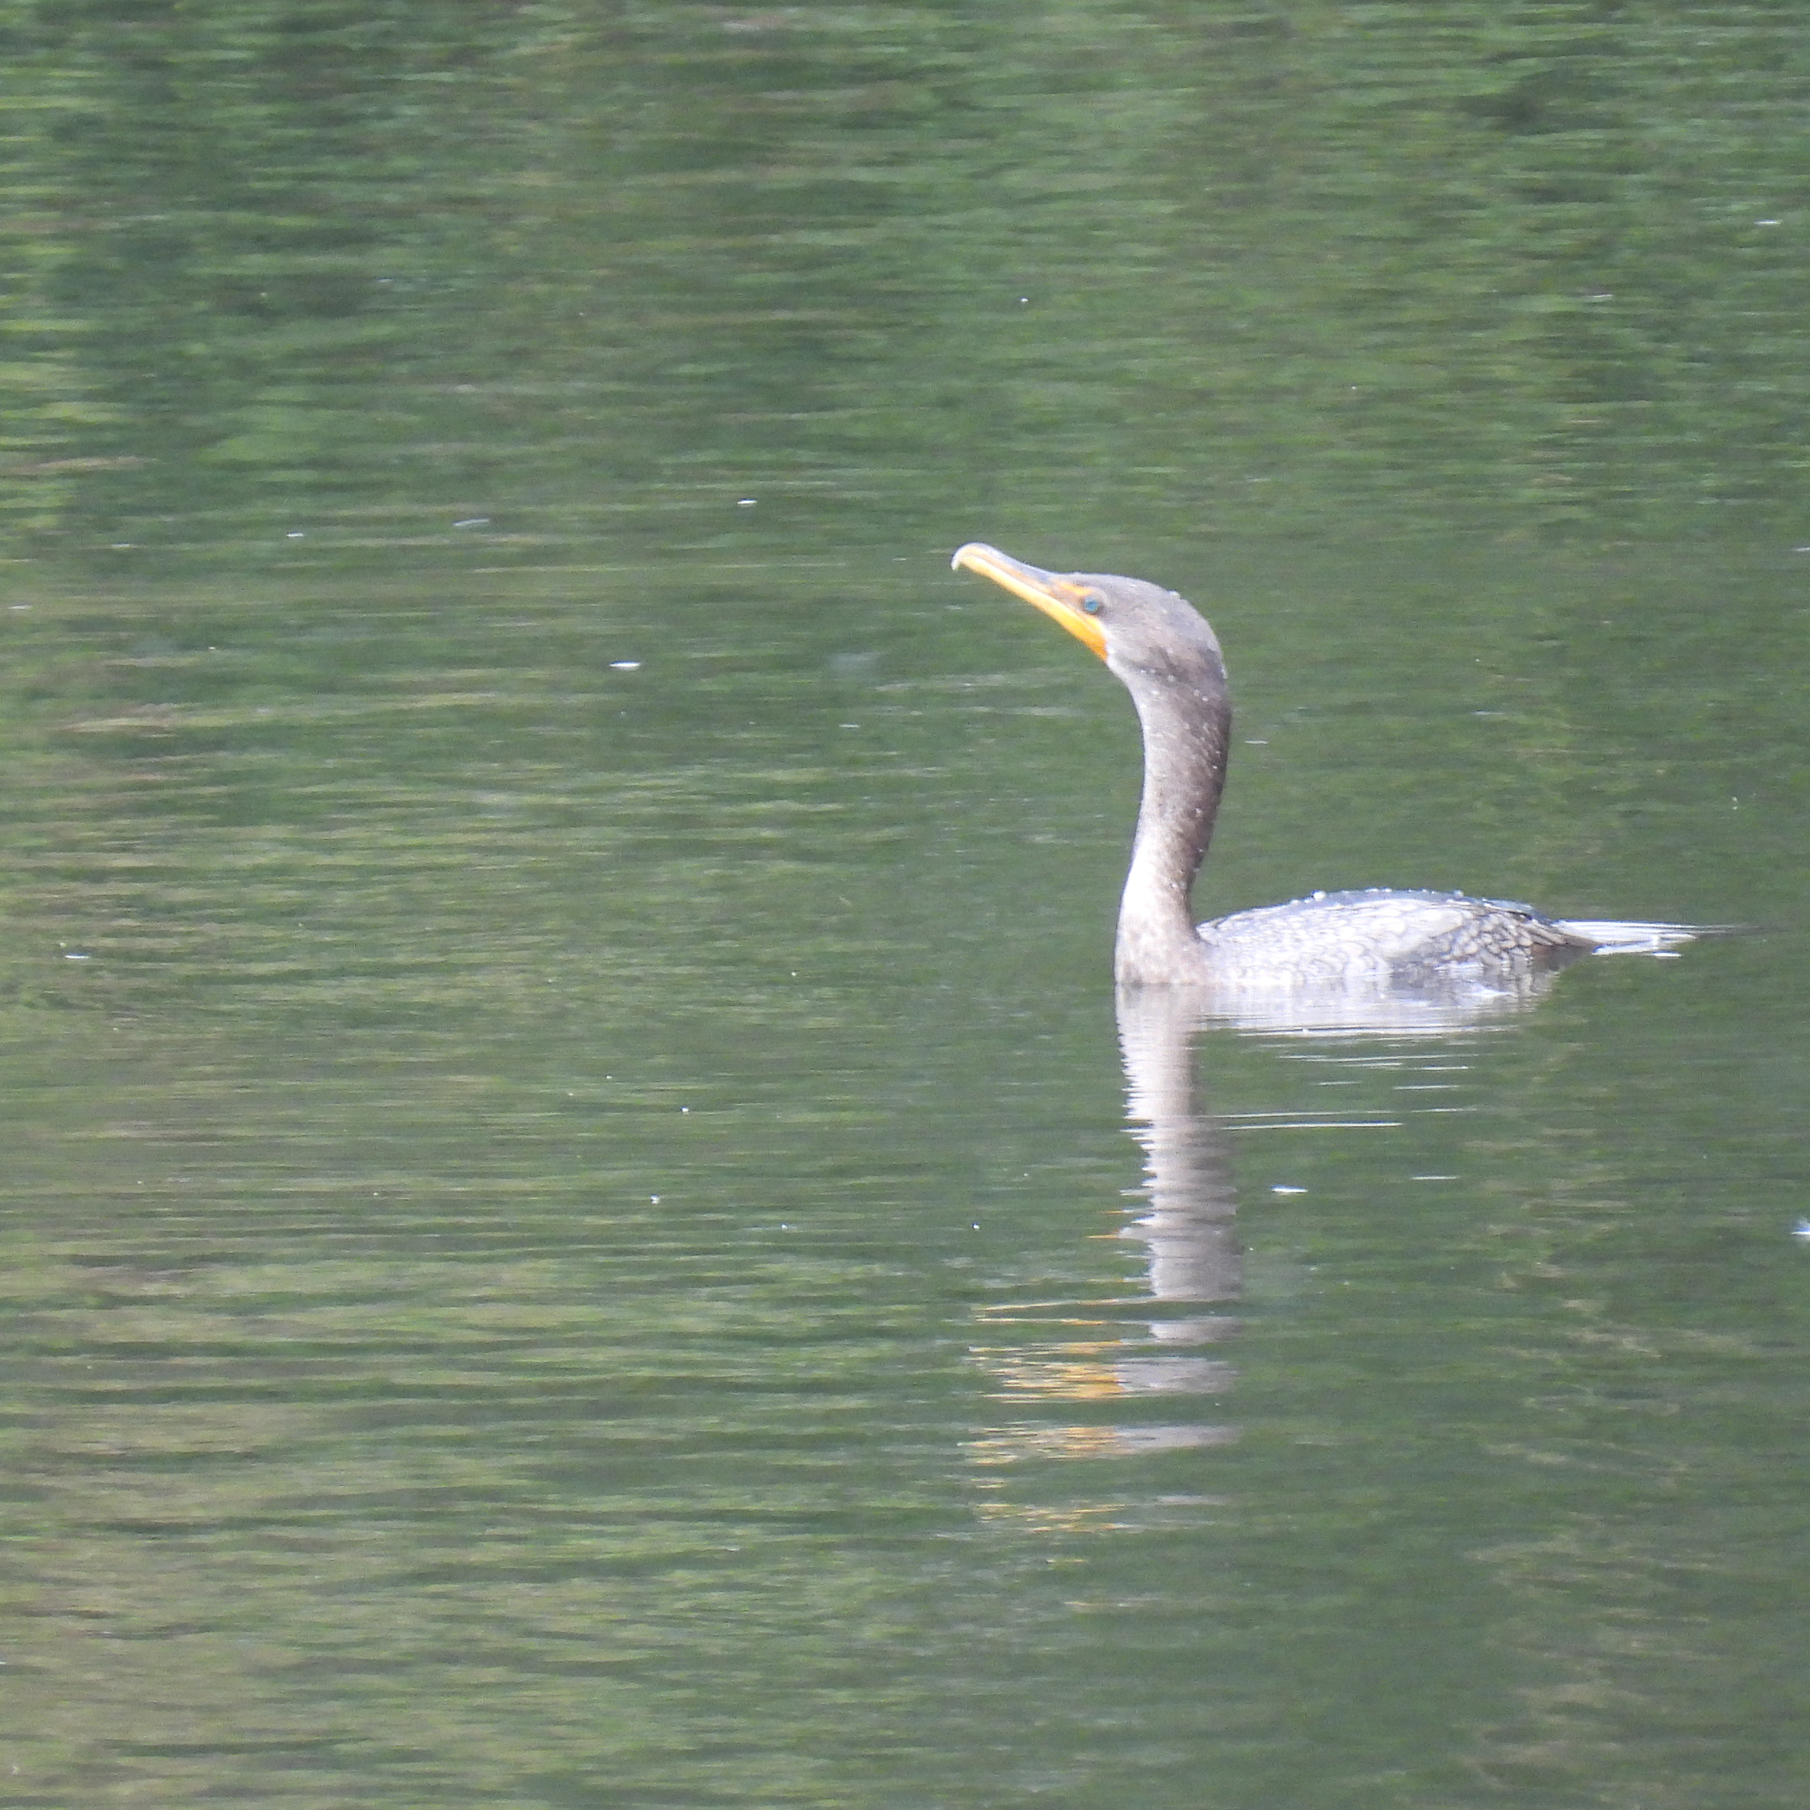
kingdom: Animalia
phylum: Chordata
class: Aves
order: Suliformes
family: Phalacrocoracidae
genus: Phalacrocorax
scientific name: Phalacrocorax auritus
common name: Double-crested cormorant
